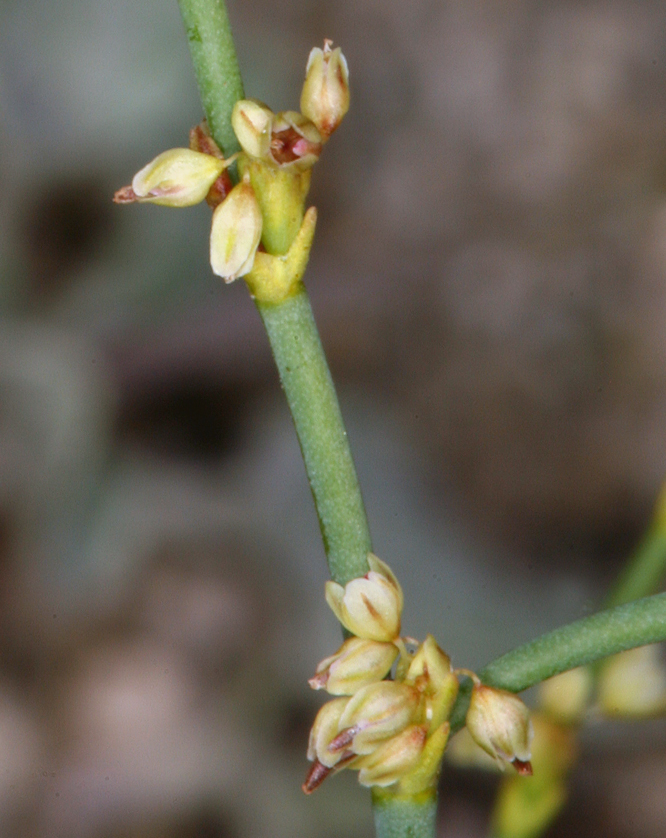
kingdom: Plantae
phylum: Tracheophyta
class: Magnoliopsida
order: Caryophyllales
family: Polygonaceae
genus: Eriogonum
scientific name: Eriogonum brachyanthum
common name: Short-flower wild buckwheat
